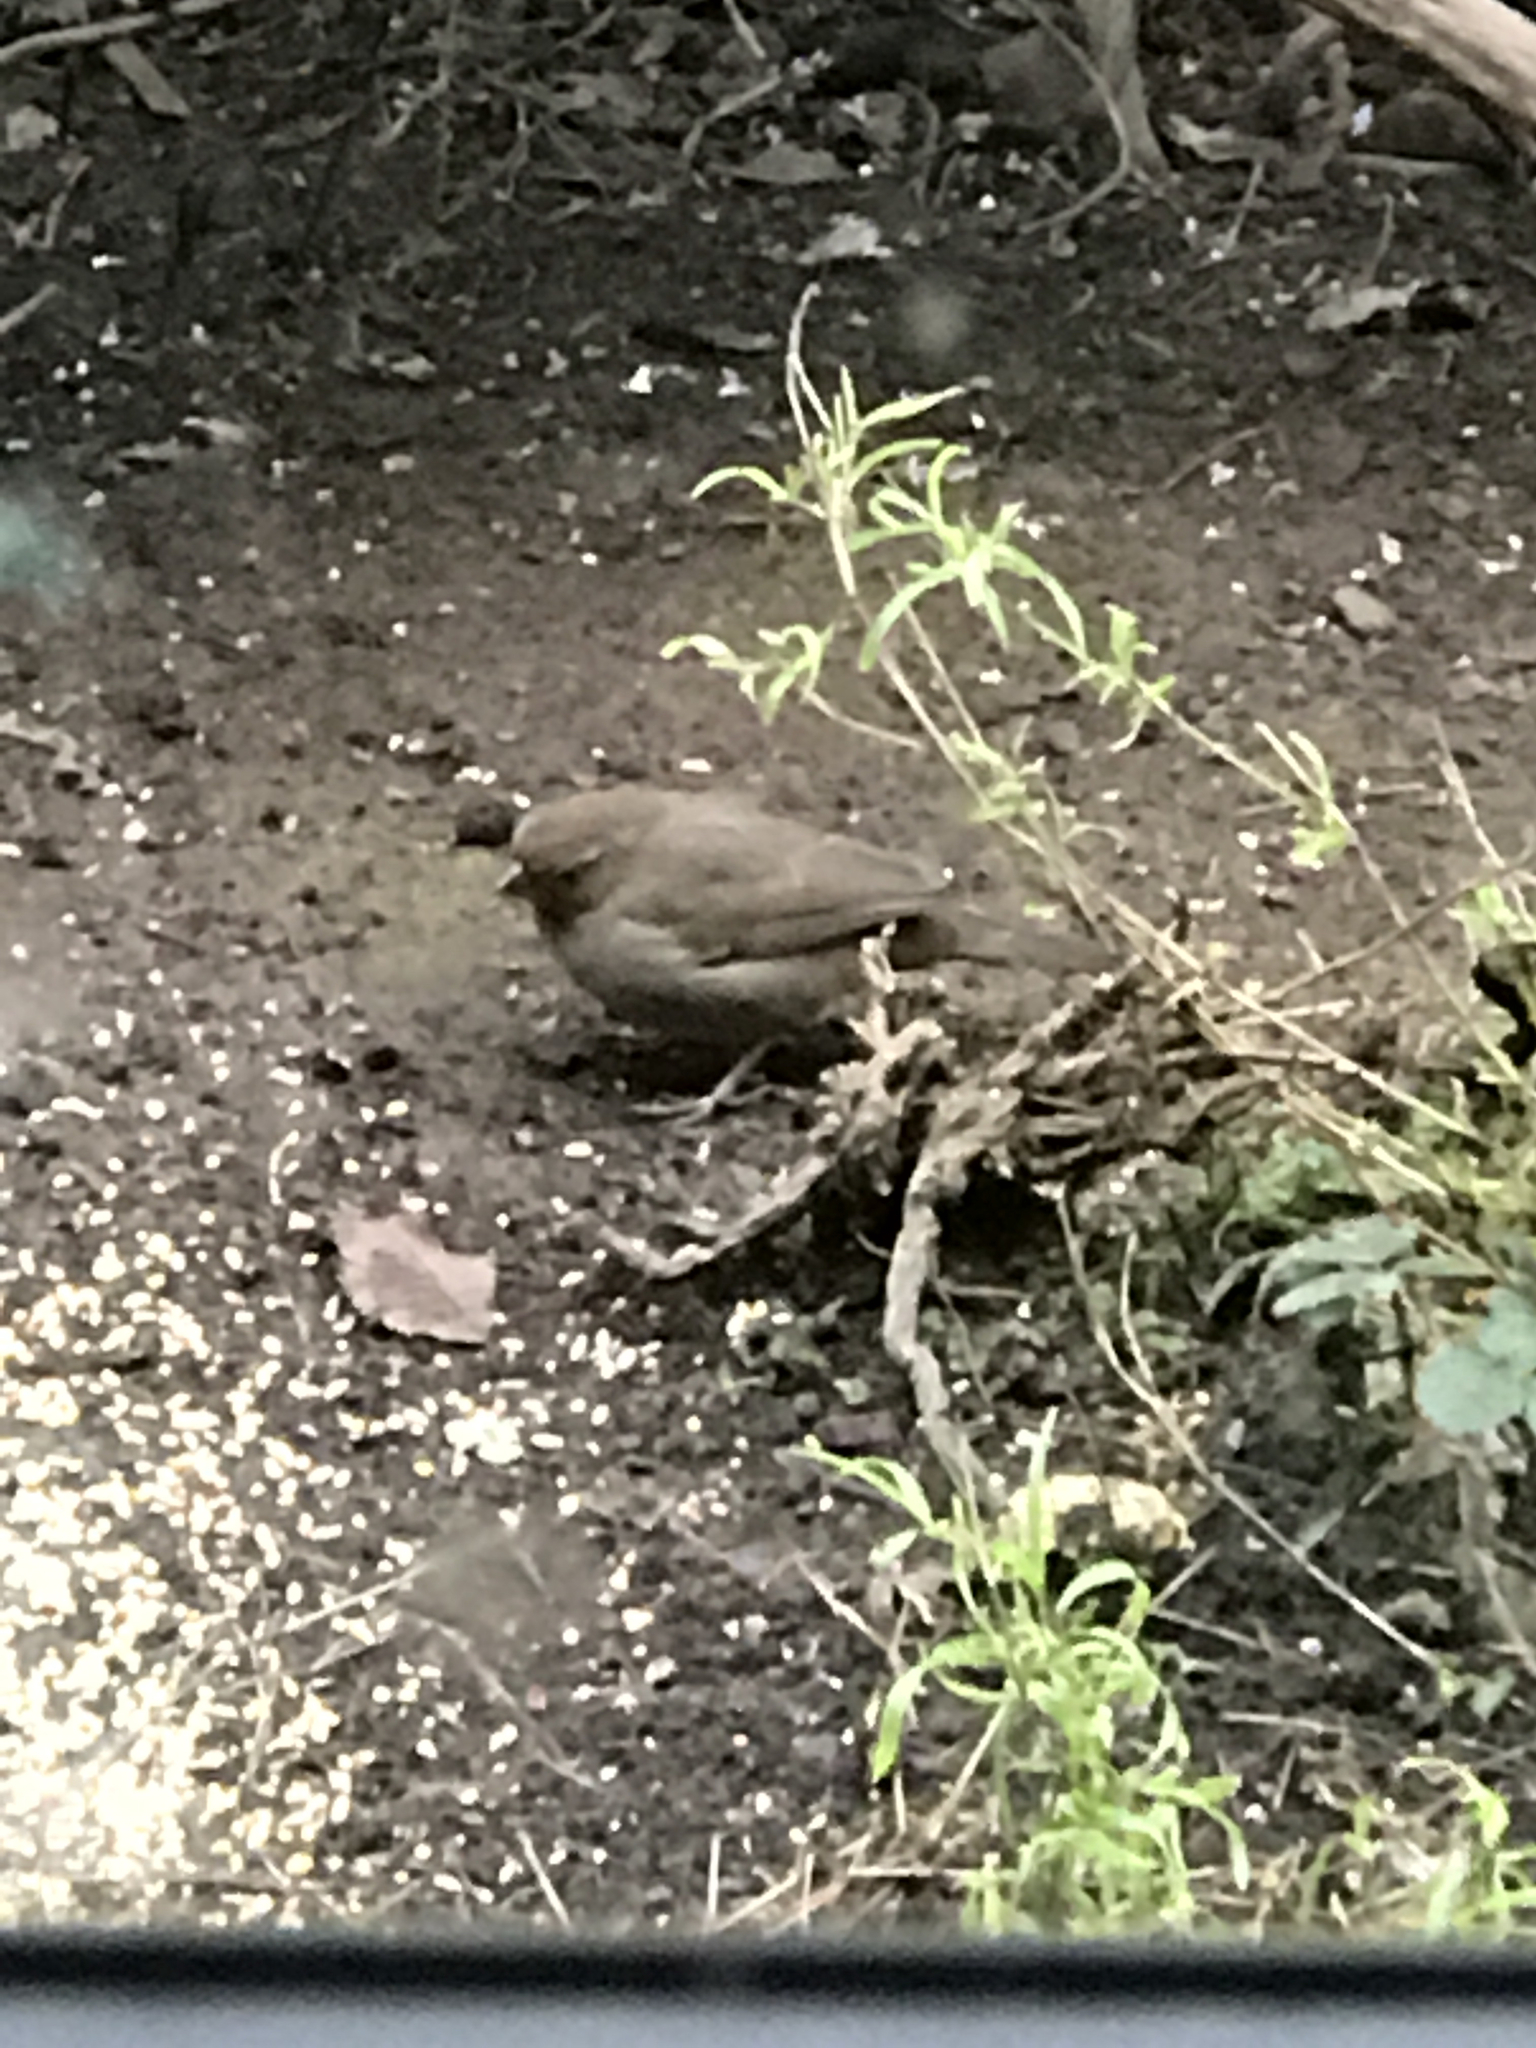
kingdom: Animalia
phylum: Chordata
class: Aves
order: Passeriformes
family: Passerellidae
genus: Melozone
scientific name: Melozone crissalis
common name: California towhee
